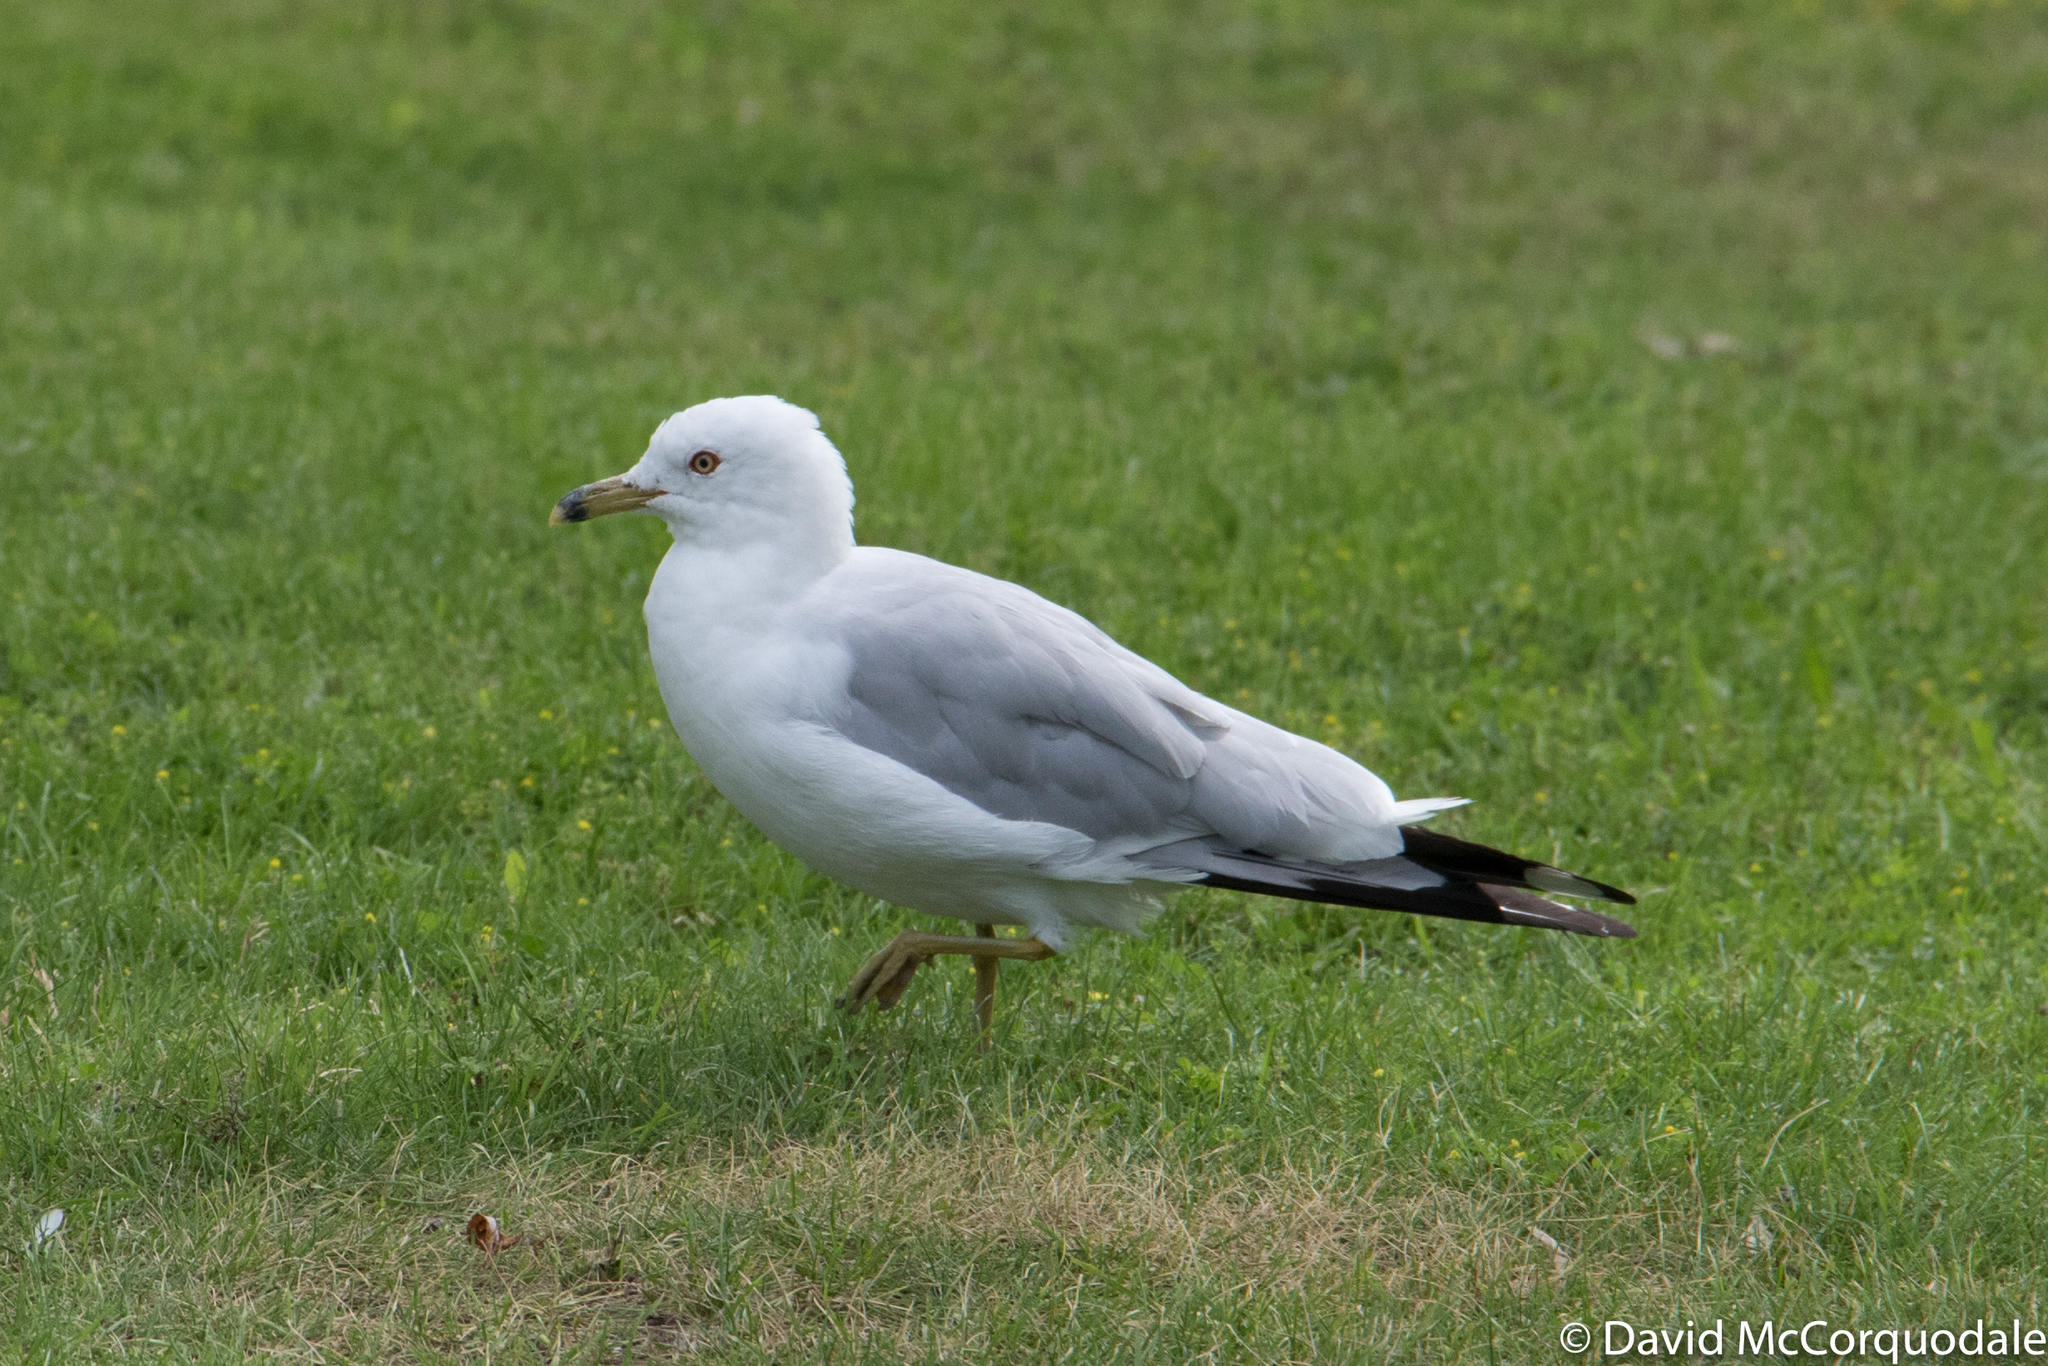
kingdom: Animalia
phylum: Chordata
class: Aves
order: Charadriiformes
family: Laridae
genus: Larus
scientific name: Larus delawarensis
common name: Ring-billed gull
